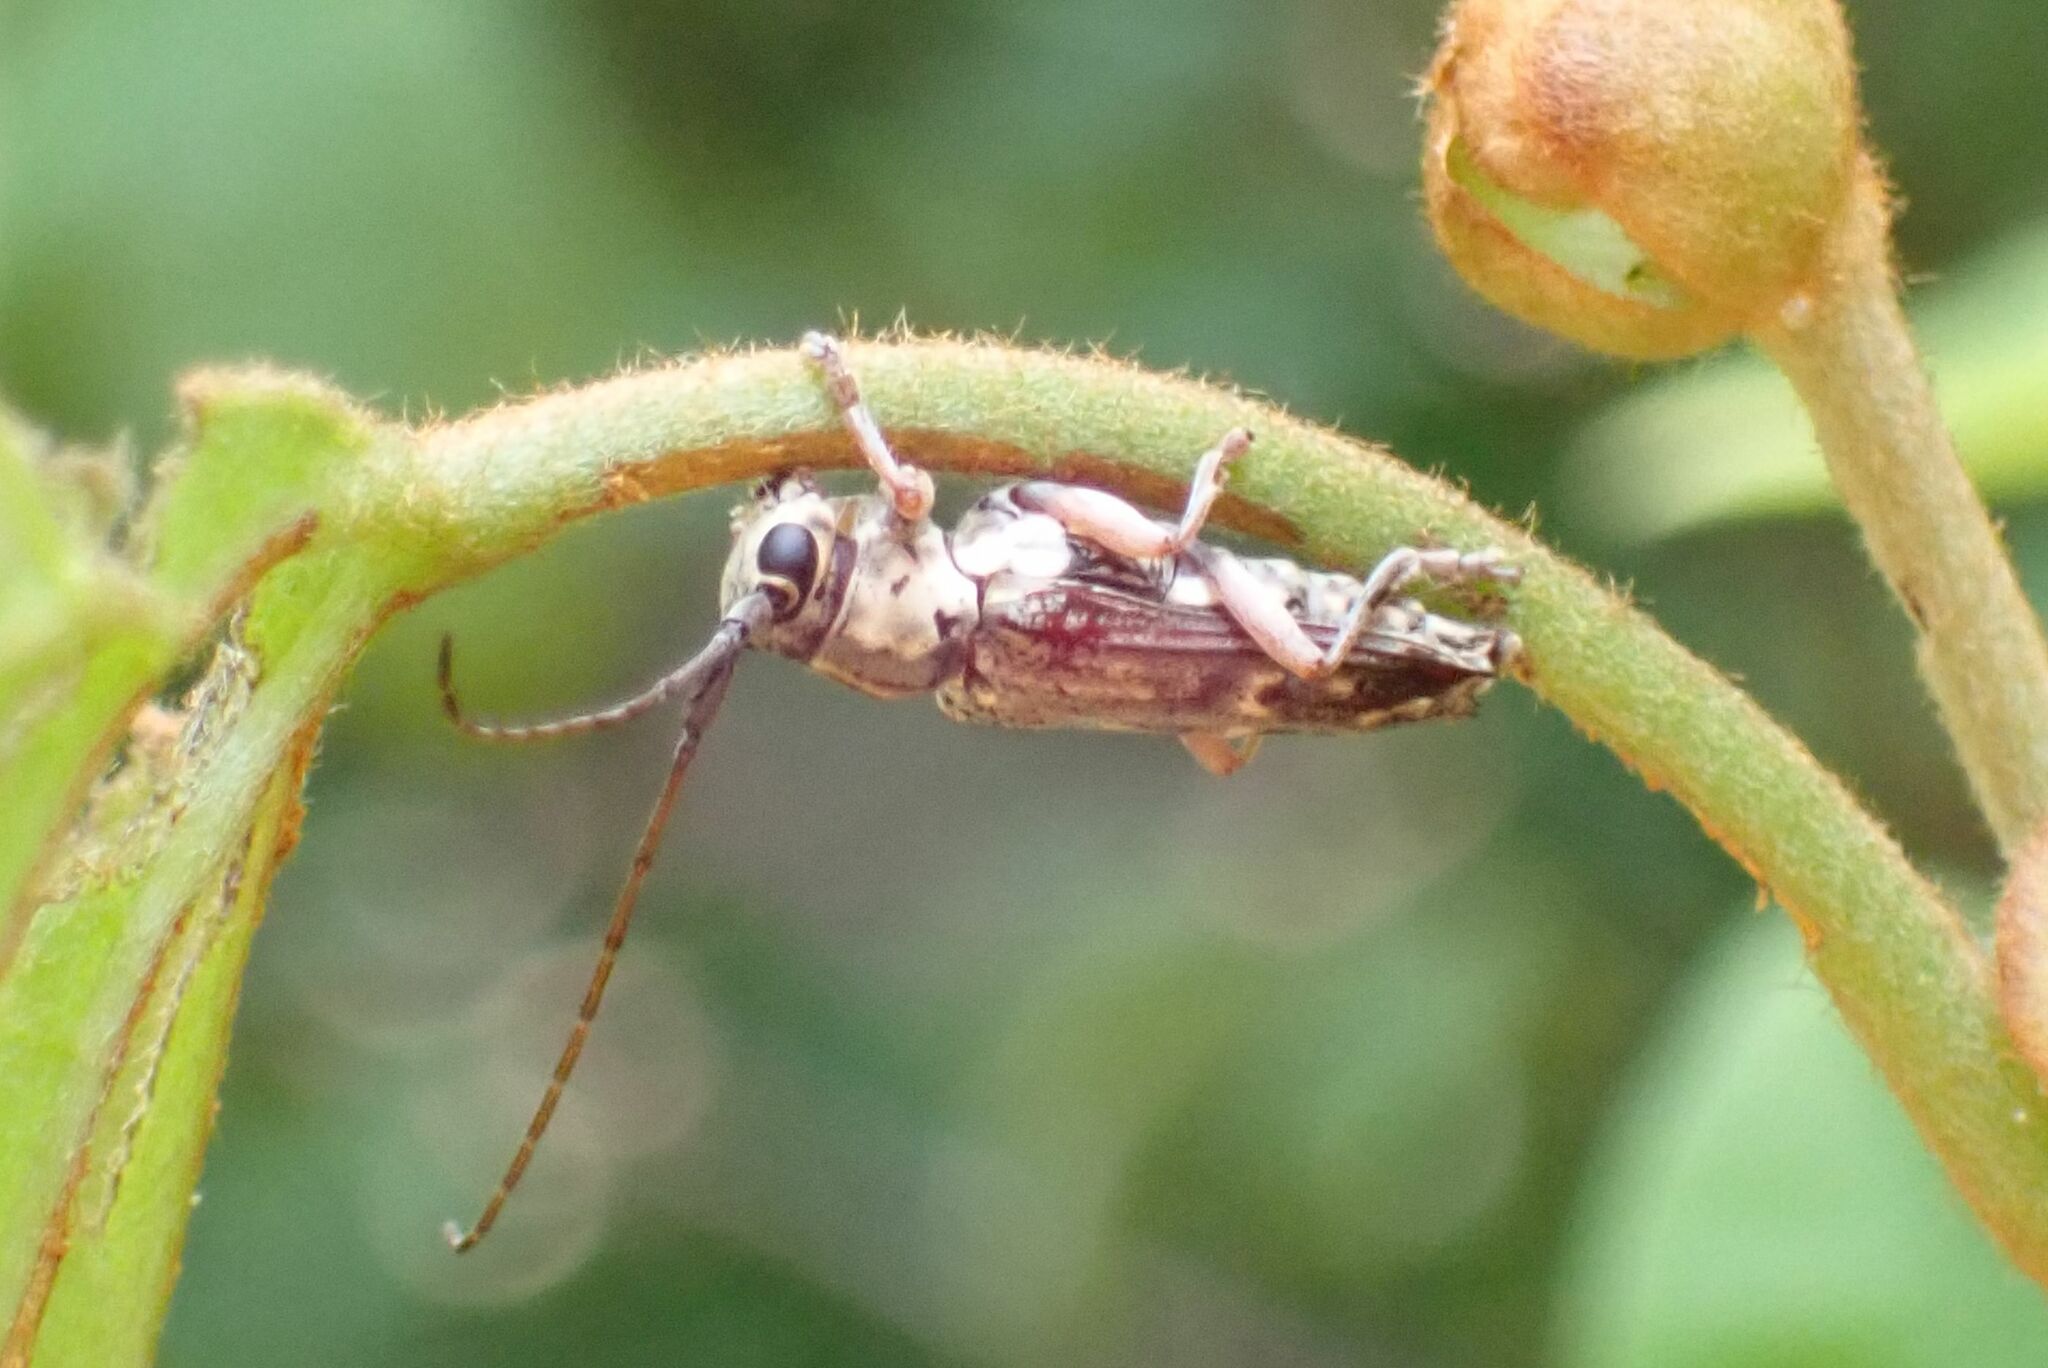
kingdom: Animalia
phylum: Arthropoda
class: Insecta
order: Coleoptera
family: Cerambycidae
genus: Glenea
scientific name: Glenea arida
